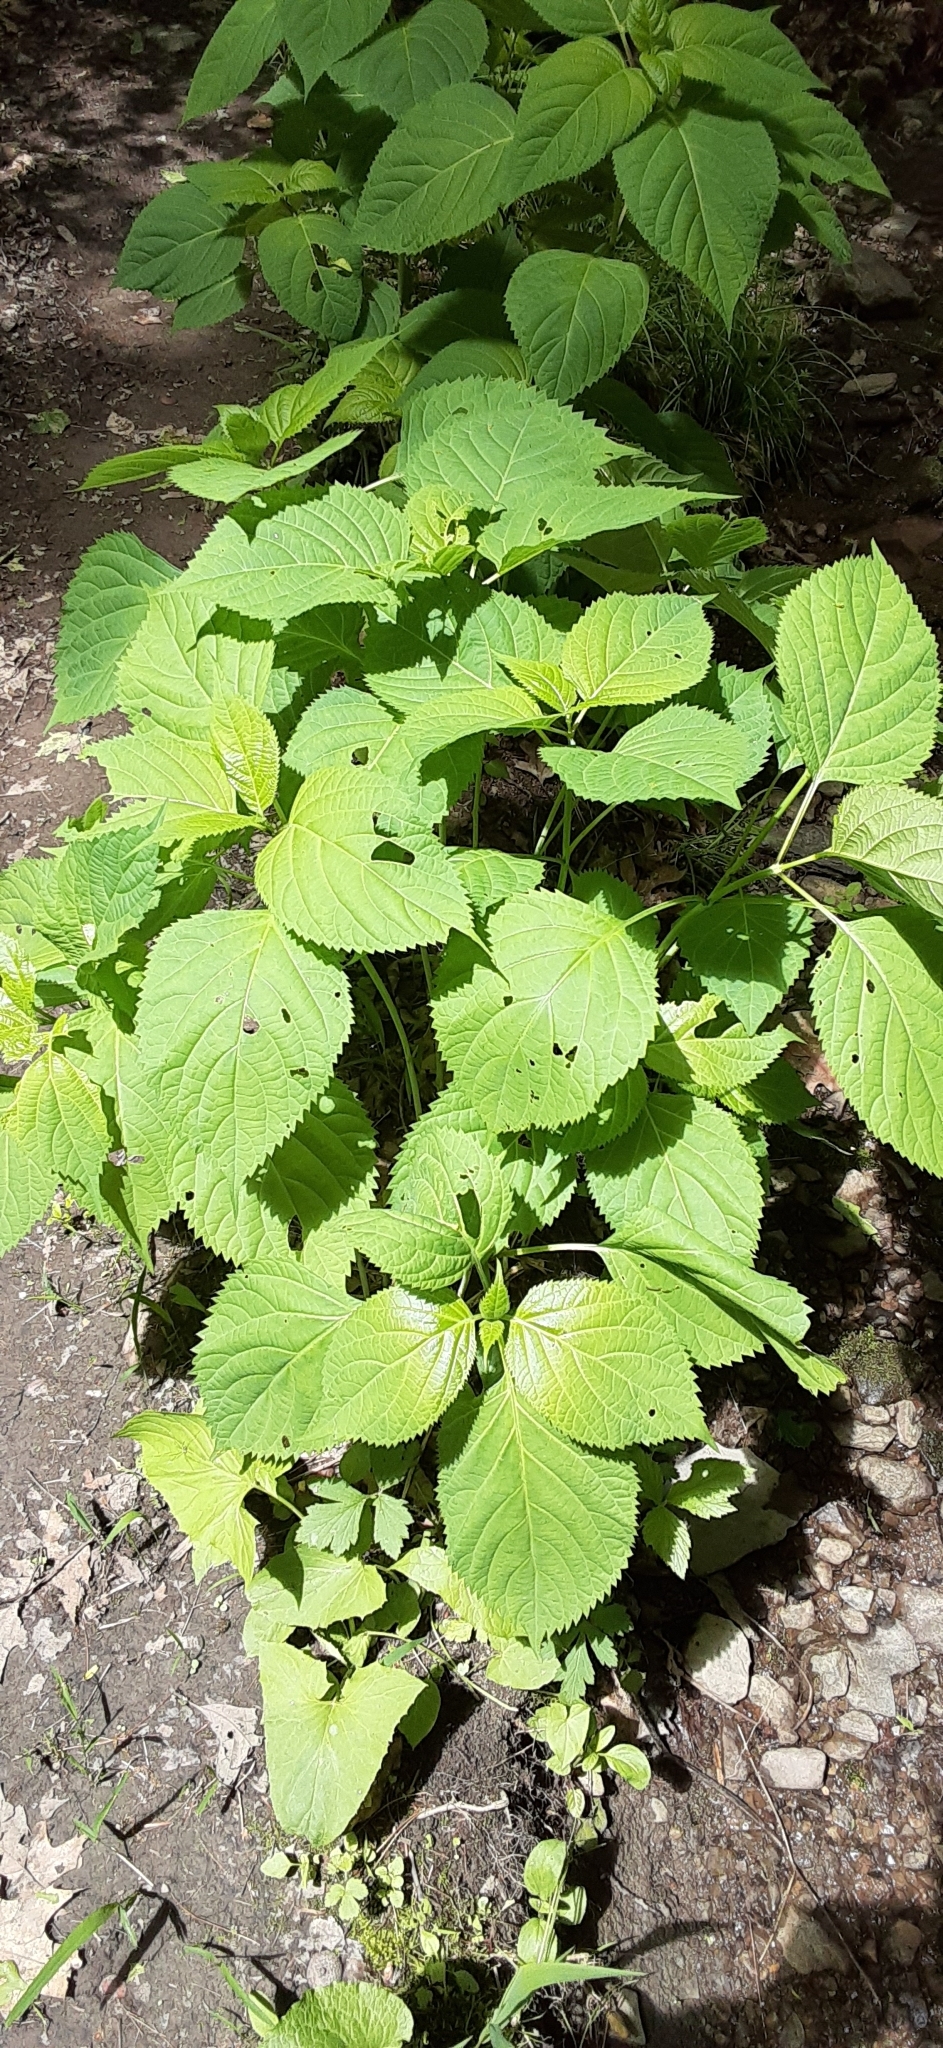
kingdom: Plantae
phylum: Tracheophyta
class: Magnoliopsida
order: Rosales
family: Urticaceae
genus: Laportea
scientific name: Laportea canadensis
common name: Canada nettle
